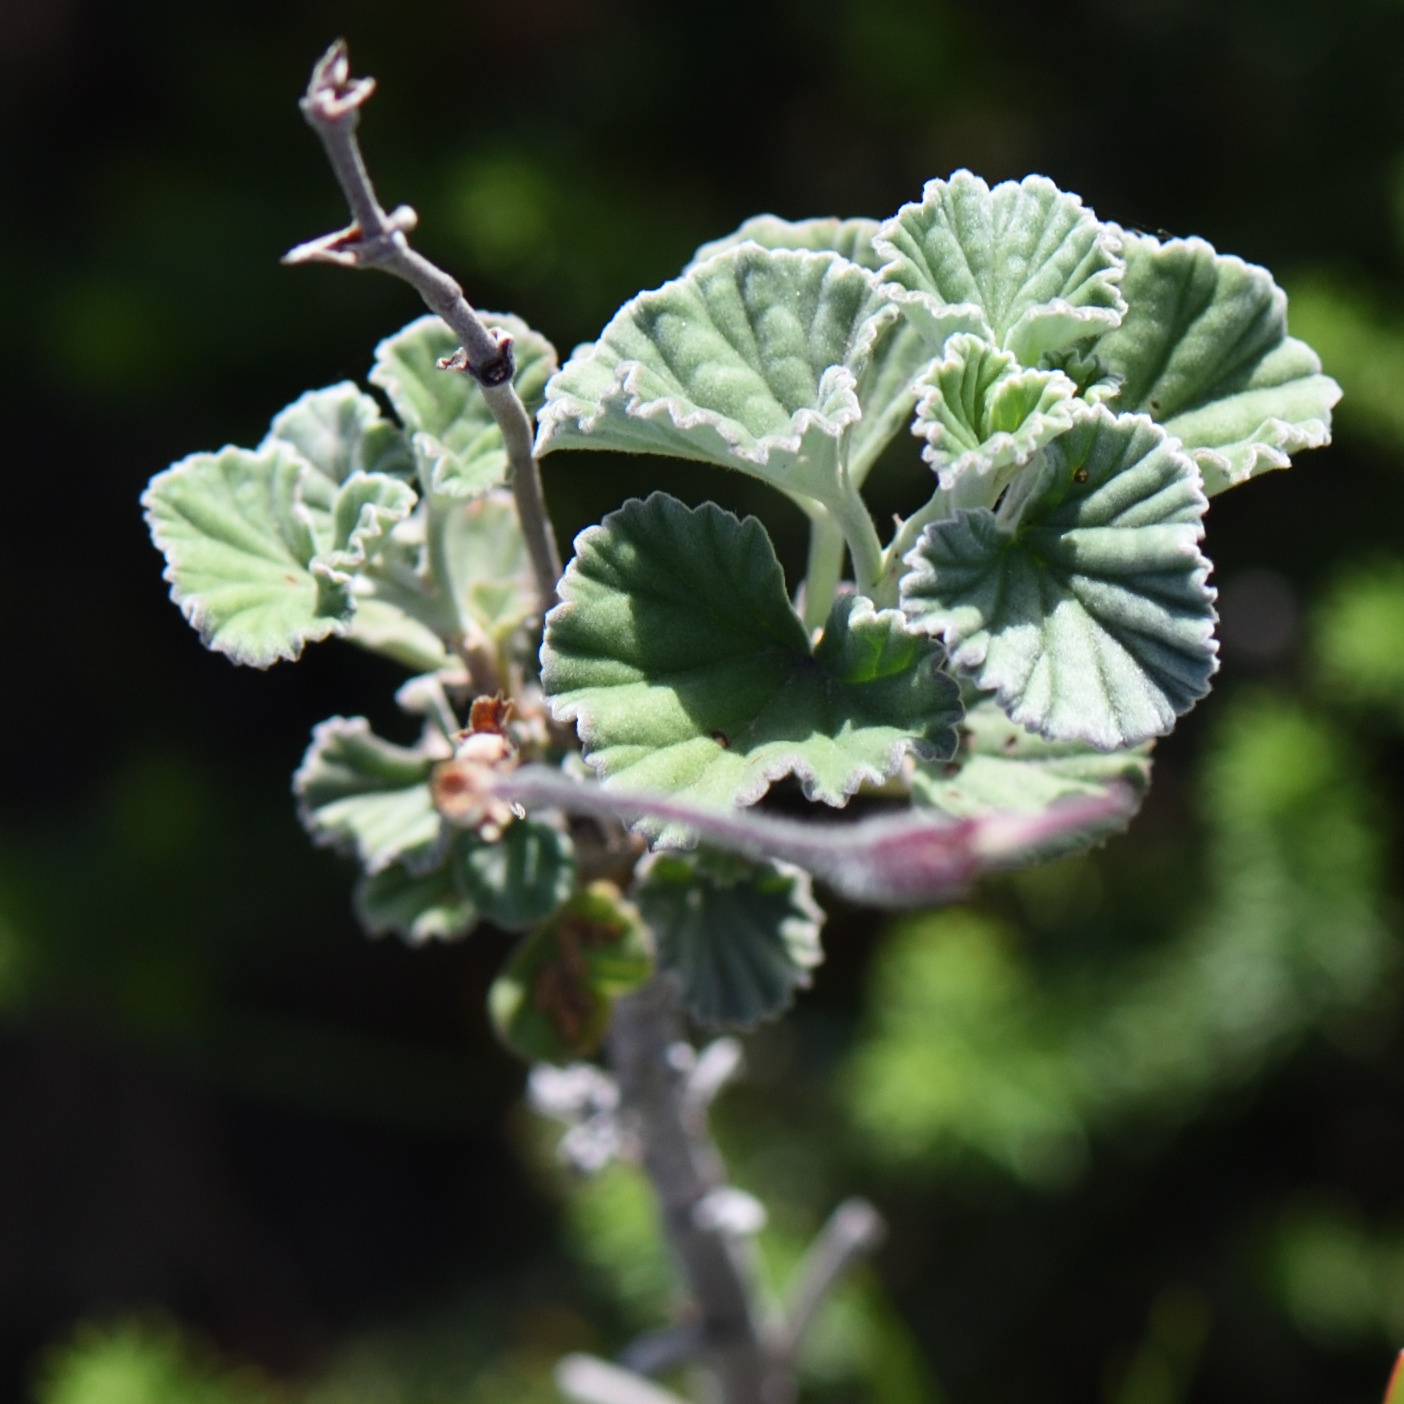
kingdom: Plantae
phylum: Tracheophyta
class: Magnoliopsida
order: Geraniales
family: Geraniaceae
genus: Pelargonium
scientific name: Pelargonium reniforme
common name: Kidney-leaf pelargonium
